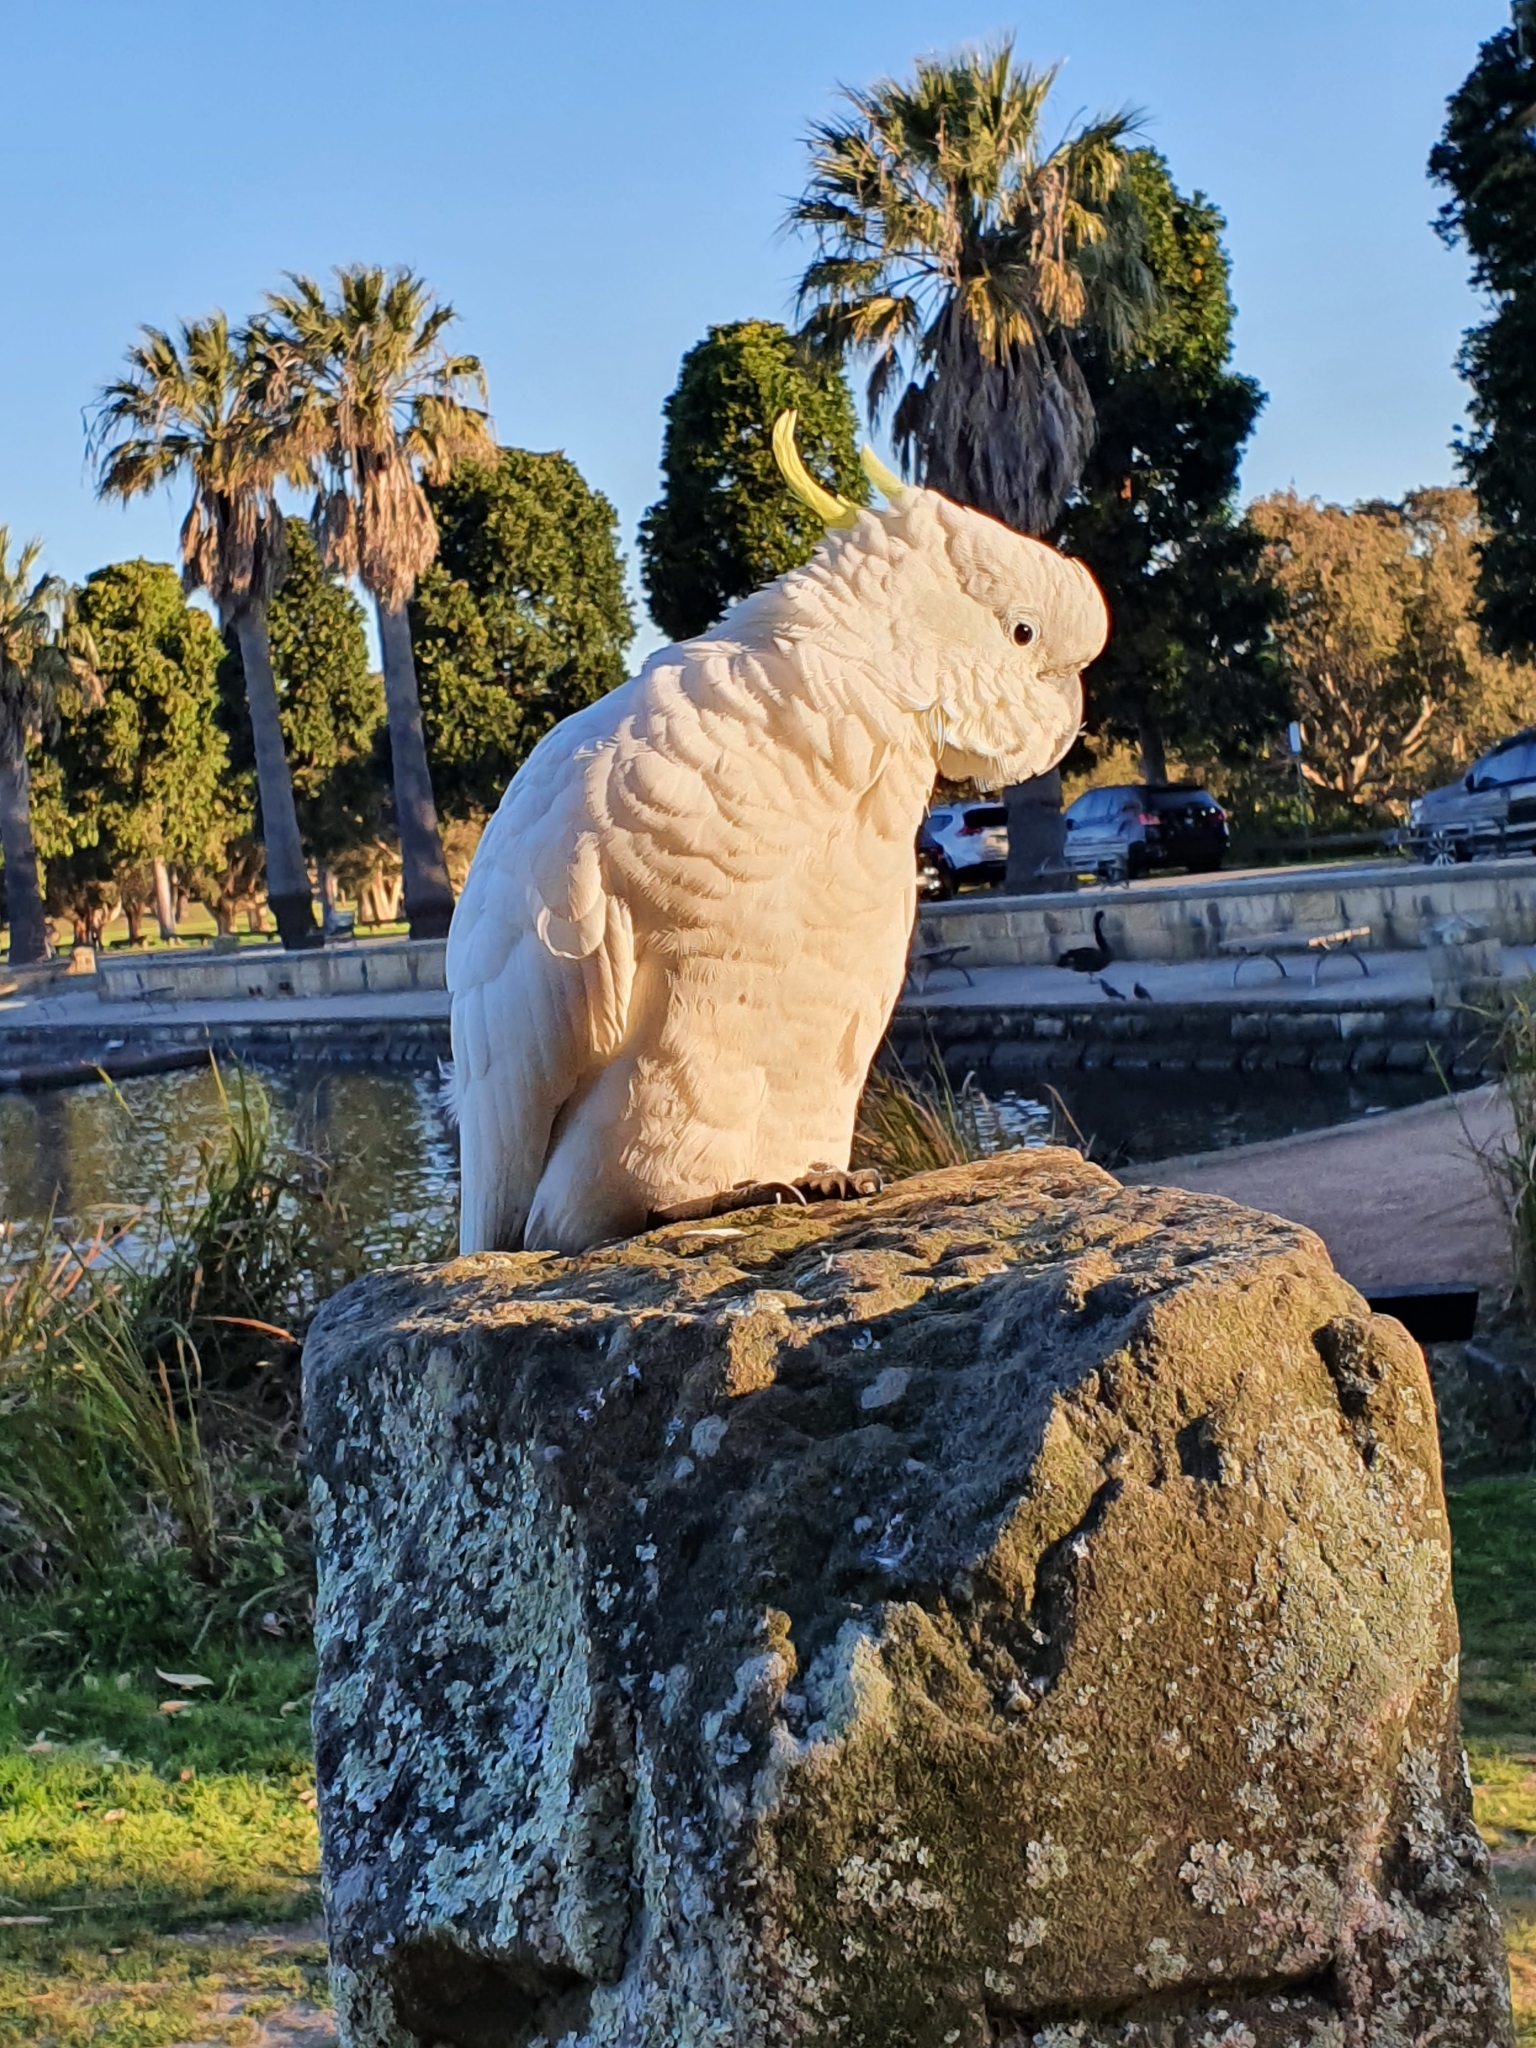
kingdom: Animalia
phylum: Chordata
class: Aves
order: Psittaciformes
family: Psittacidae
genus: Cacatua
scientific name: Cacatua galerita
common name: Sulphur-crested cockatoo
